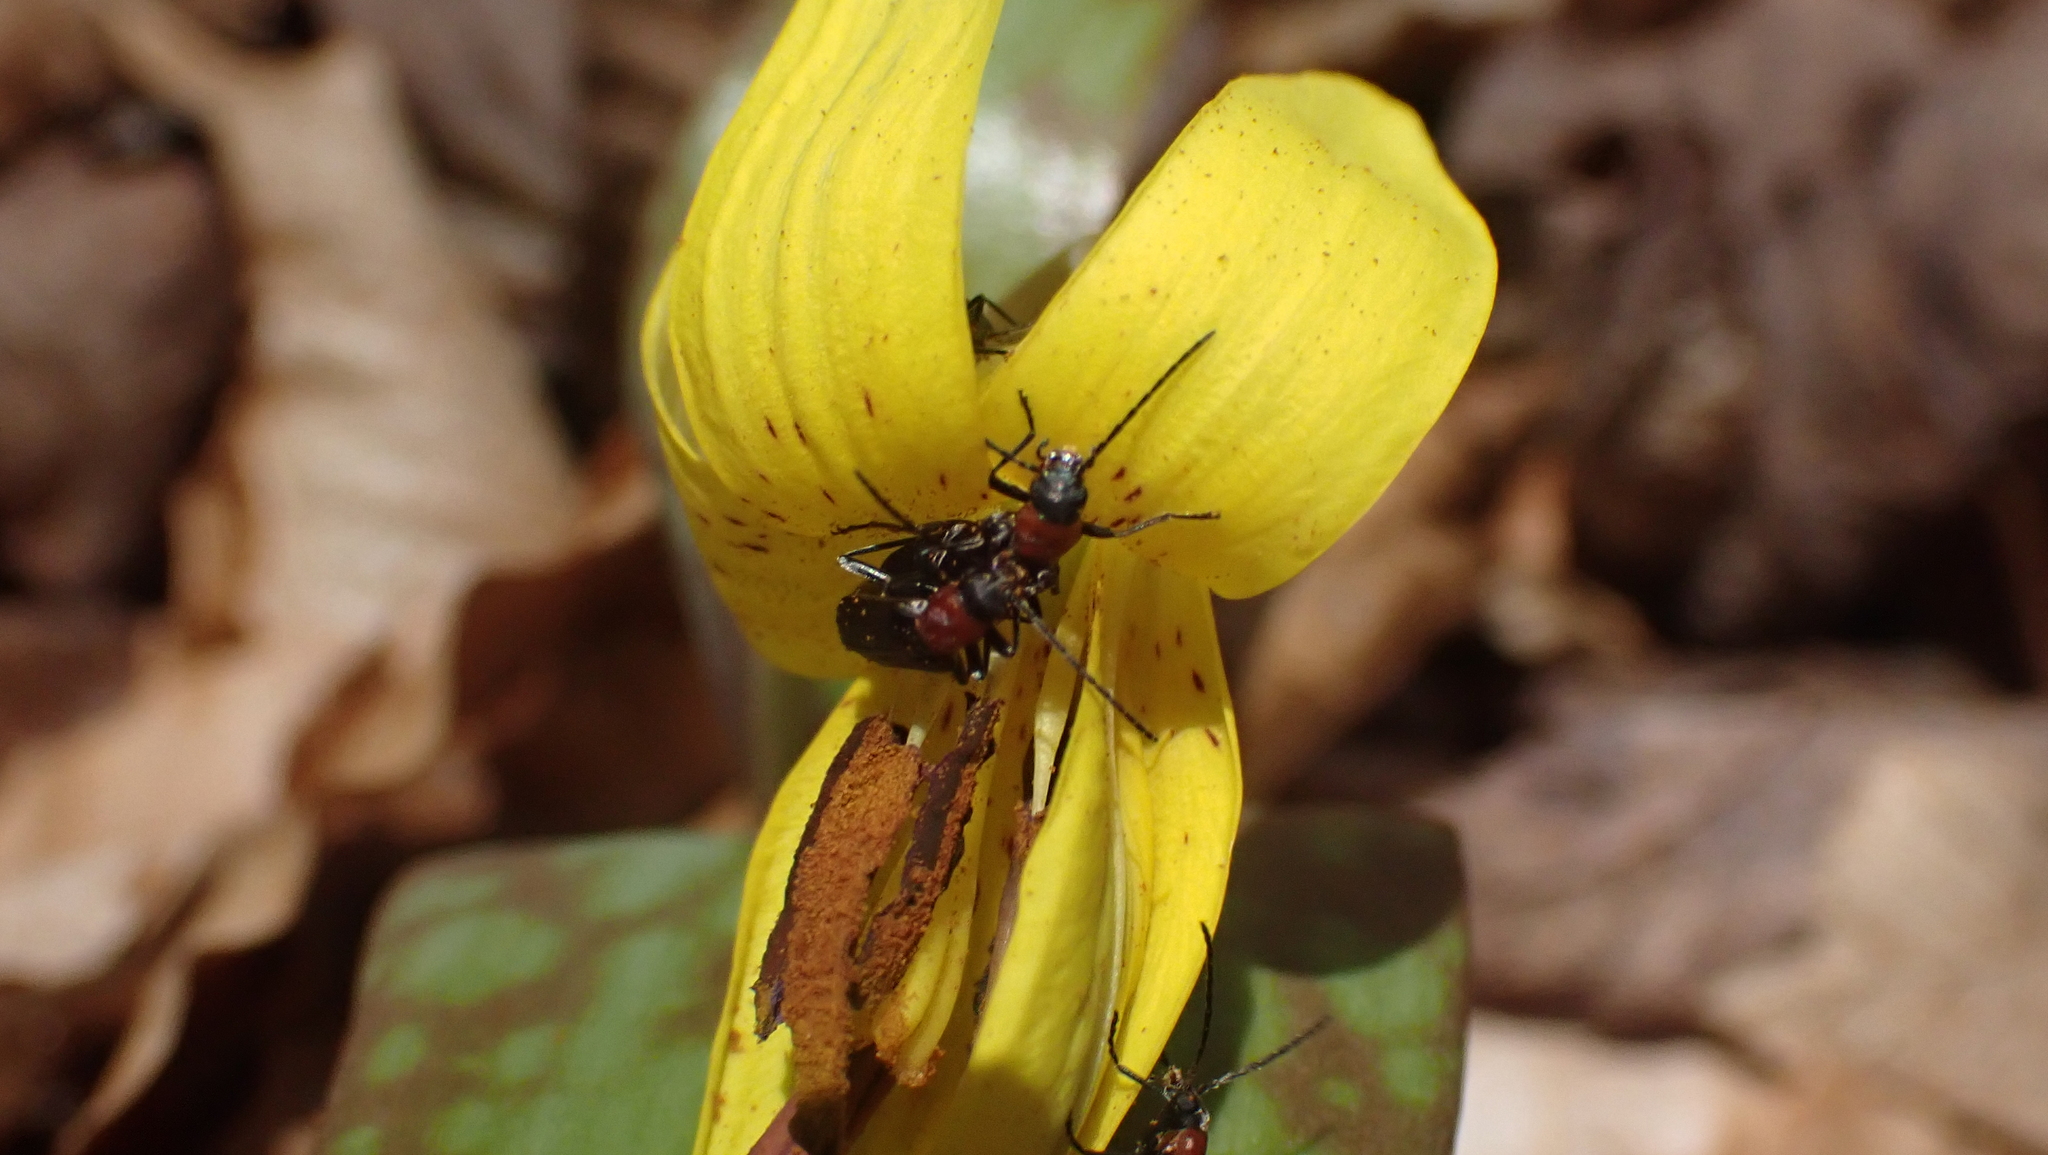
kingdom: Animalia
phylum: Arthropoda
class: Insecta
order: Coleoptera
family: Oedemeridae
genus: Ischnomera
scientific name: Ischnomera
